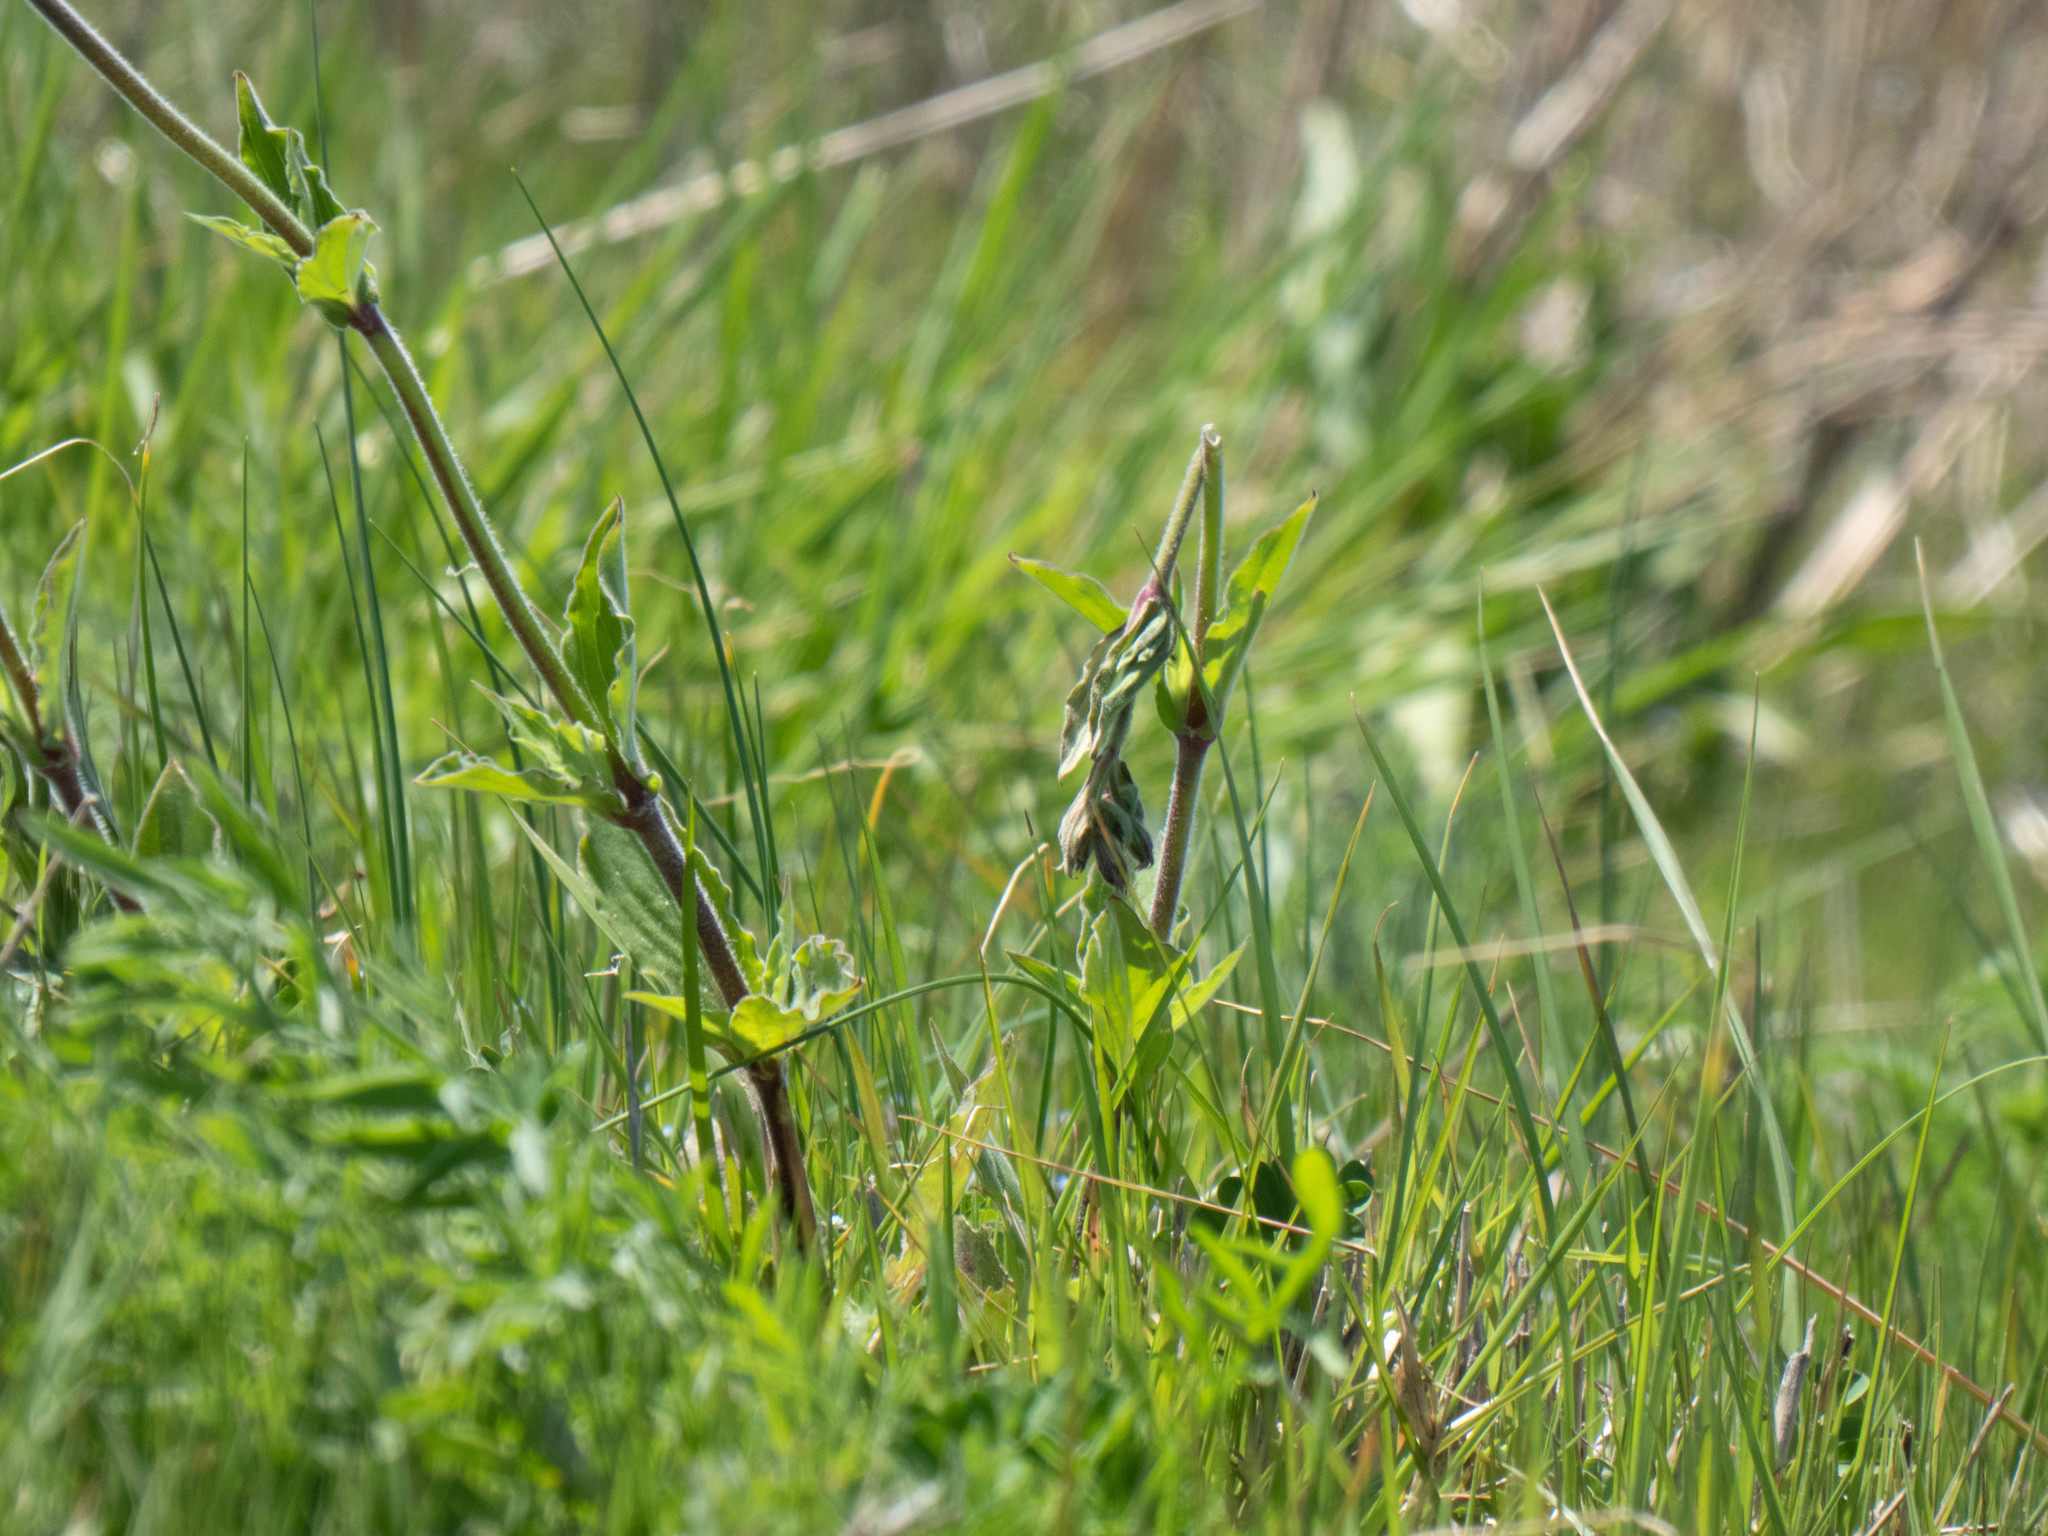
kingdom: Plantae
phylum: Tracheophyta
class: Magnoliopsida
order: Caryophyllales
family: Caryophyllaceae
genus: Silene
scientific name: Silene latifolia
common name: White campion
